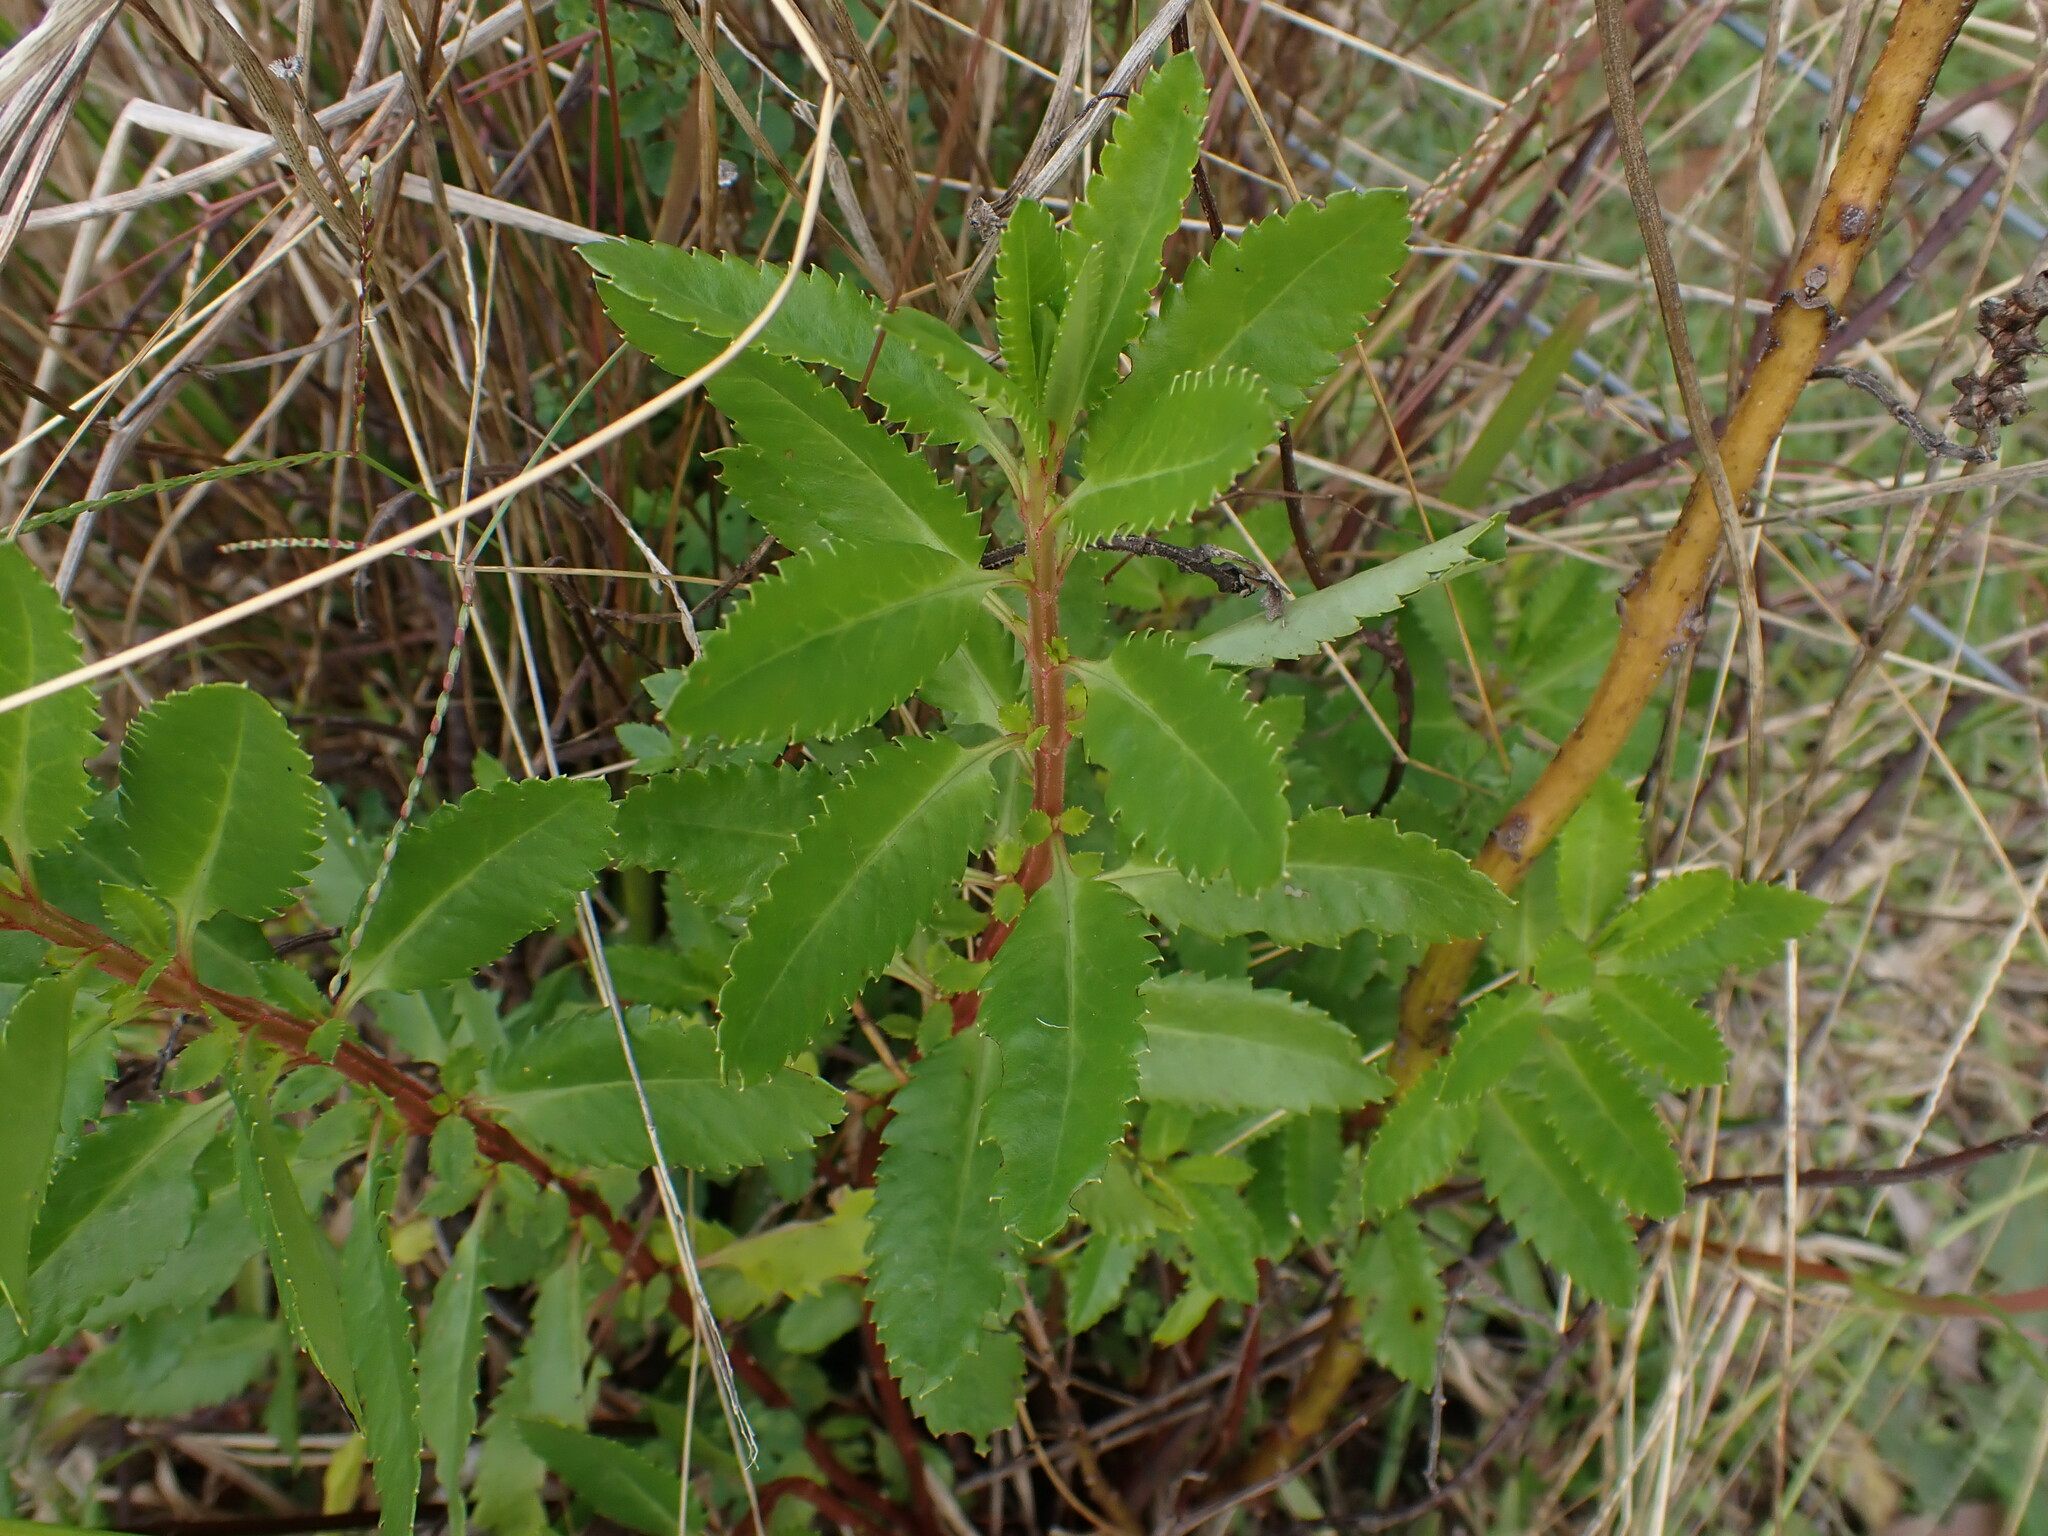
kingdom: Plantae
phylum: Tracheophyta
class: Magnoliopsida
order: Saxifragales
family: Haloragaceae
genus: Haloragis
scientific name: Haloragis erecta
